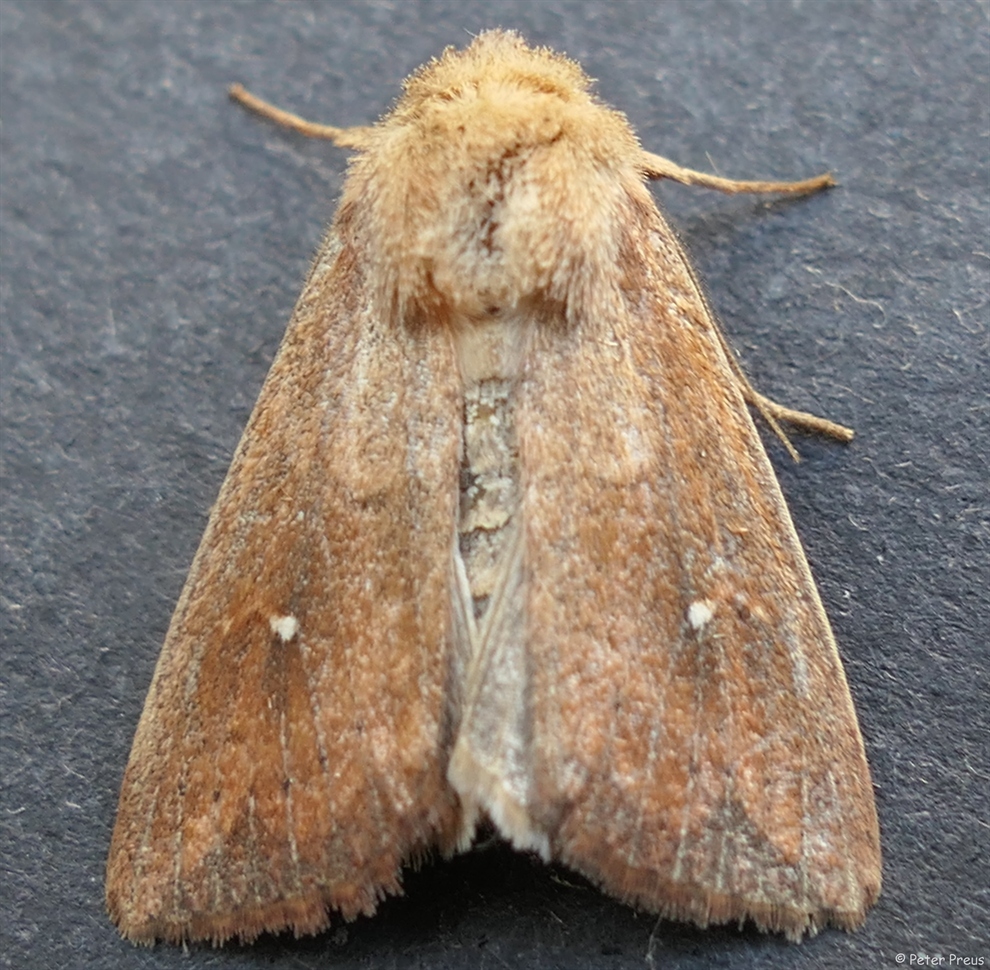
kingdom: Animalia
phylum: Arthropoda
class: Insecta
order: Lepidoptera
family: Noctuidae
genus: Mythimna
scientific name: Mythimna albipuncta
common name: White-point
